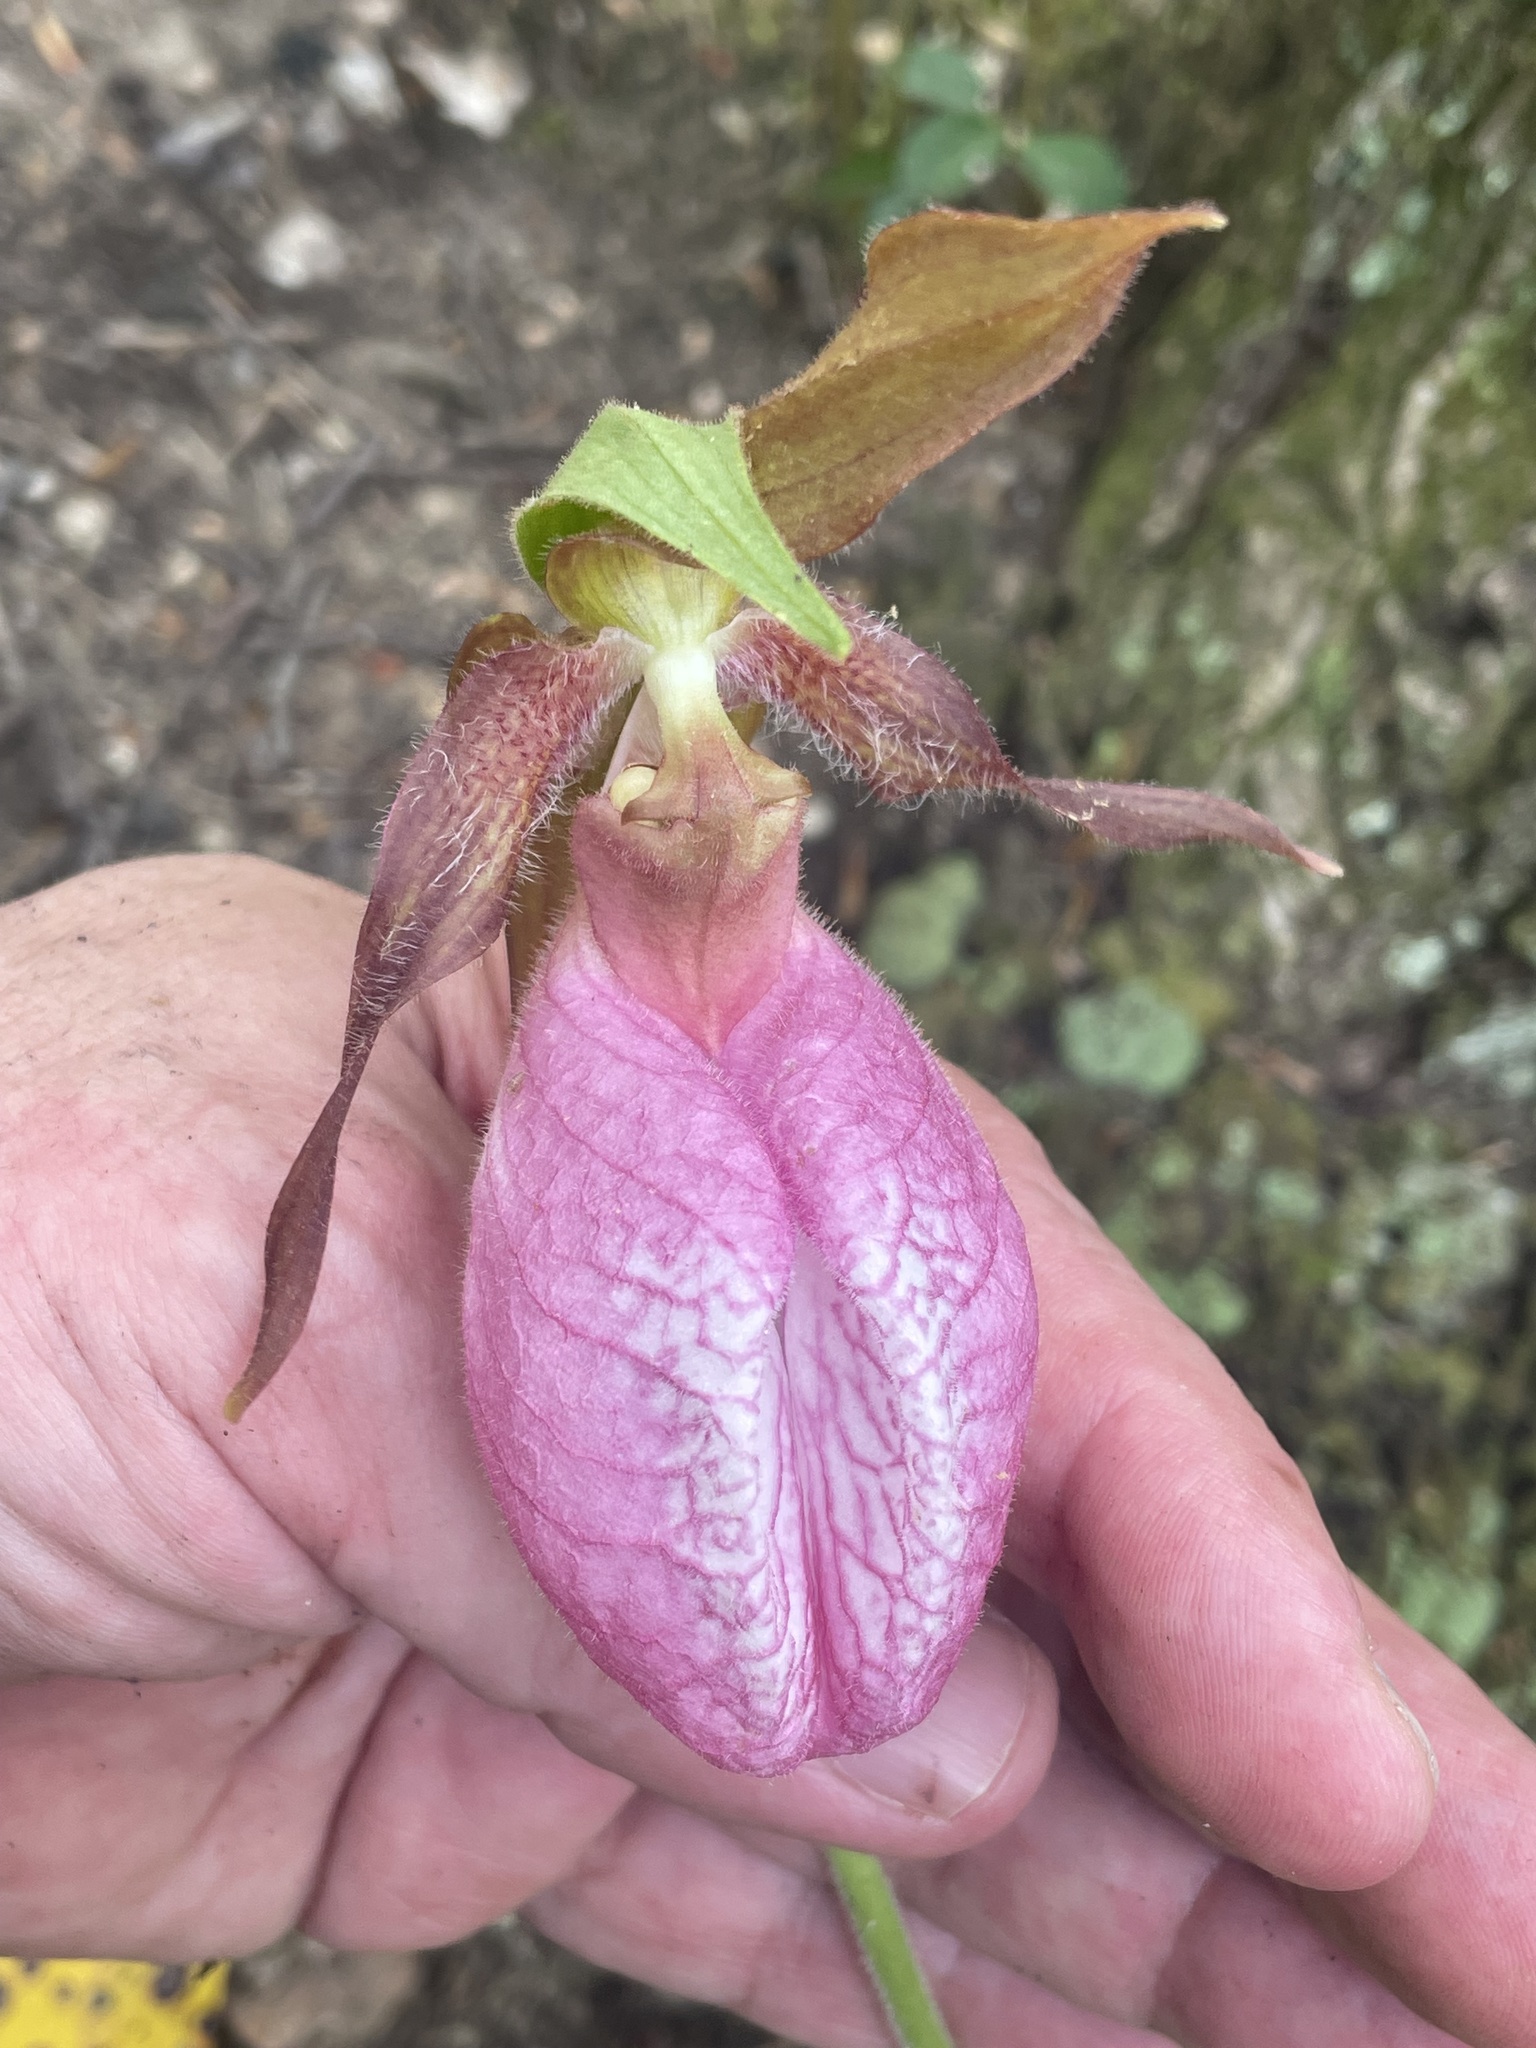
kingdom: Plantae
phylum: Tracheophyta
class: Liliopsida
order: Asparagales
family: Orchidaceae
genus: Cypripedium
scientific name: Cypripedium acaule
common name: Pink lady's-slipper
